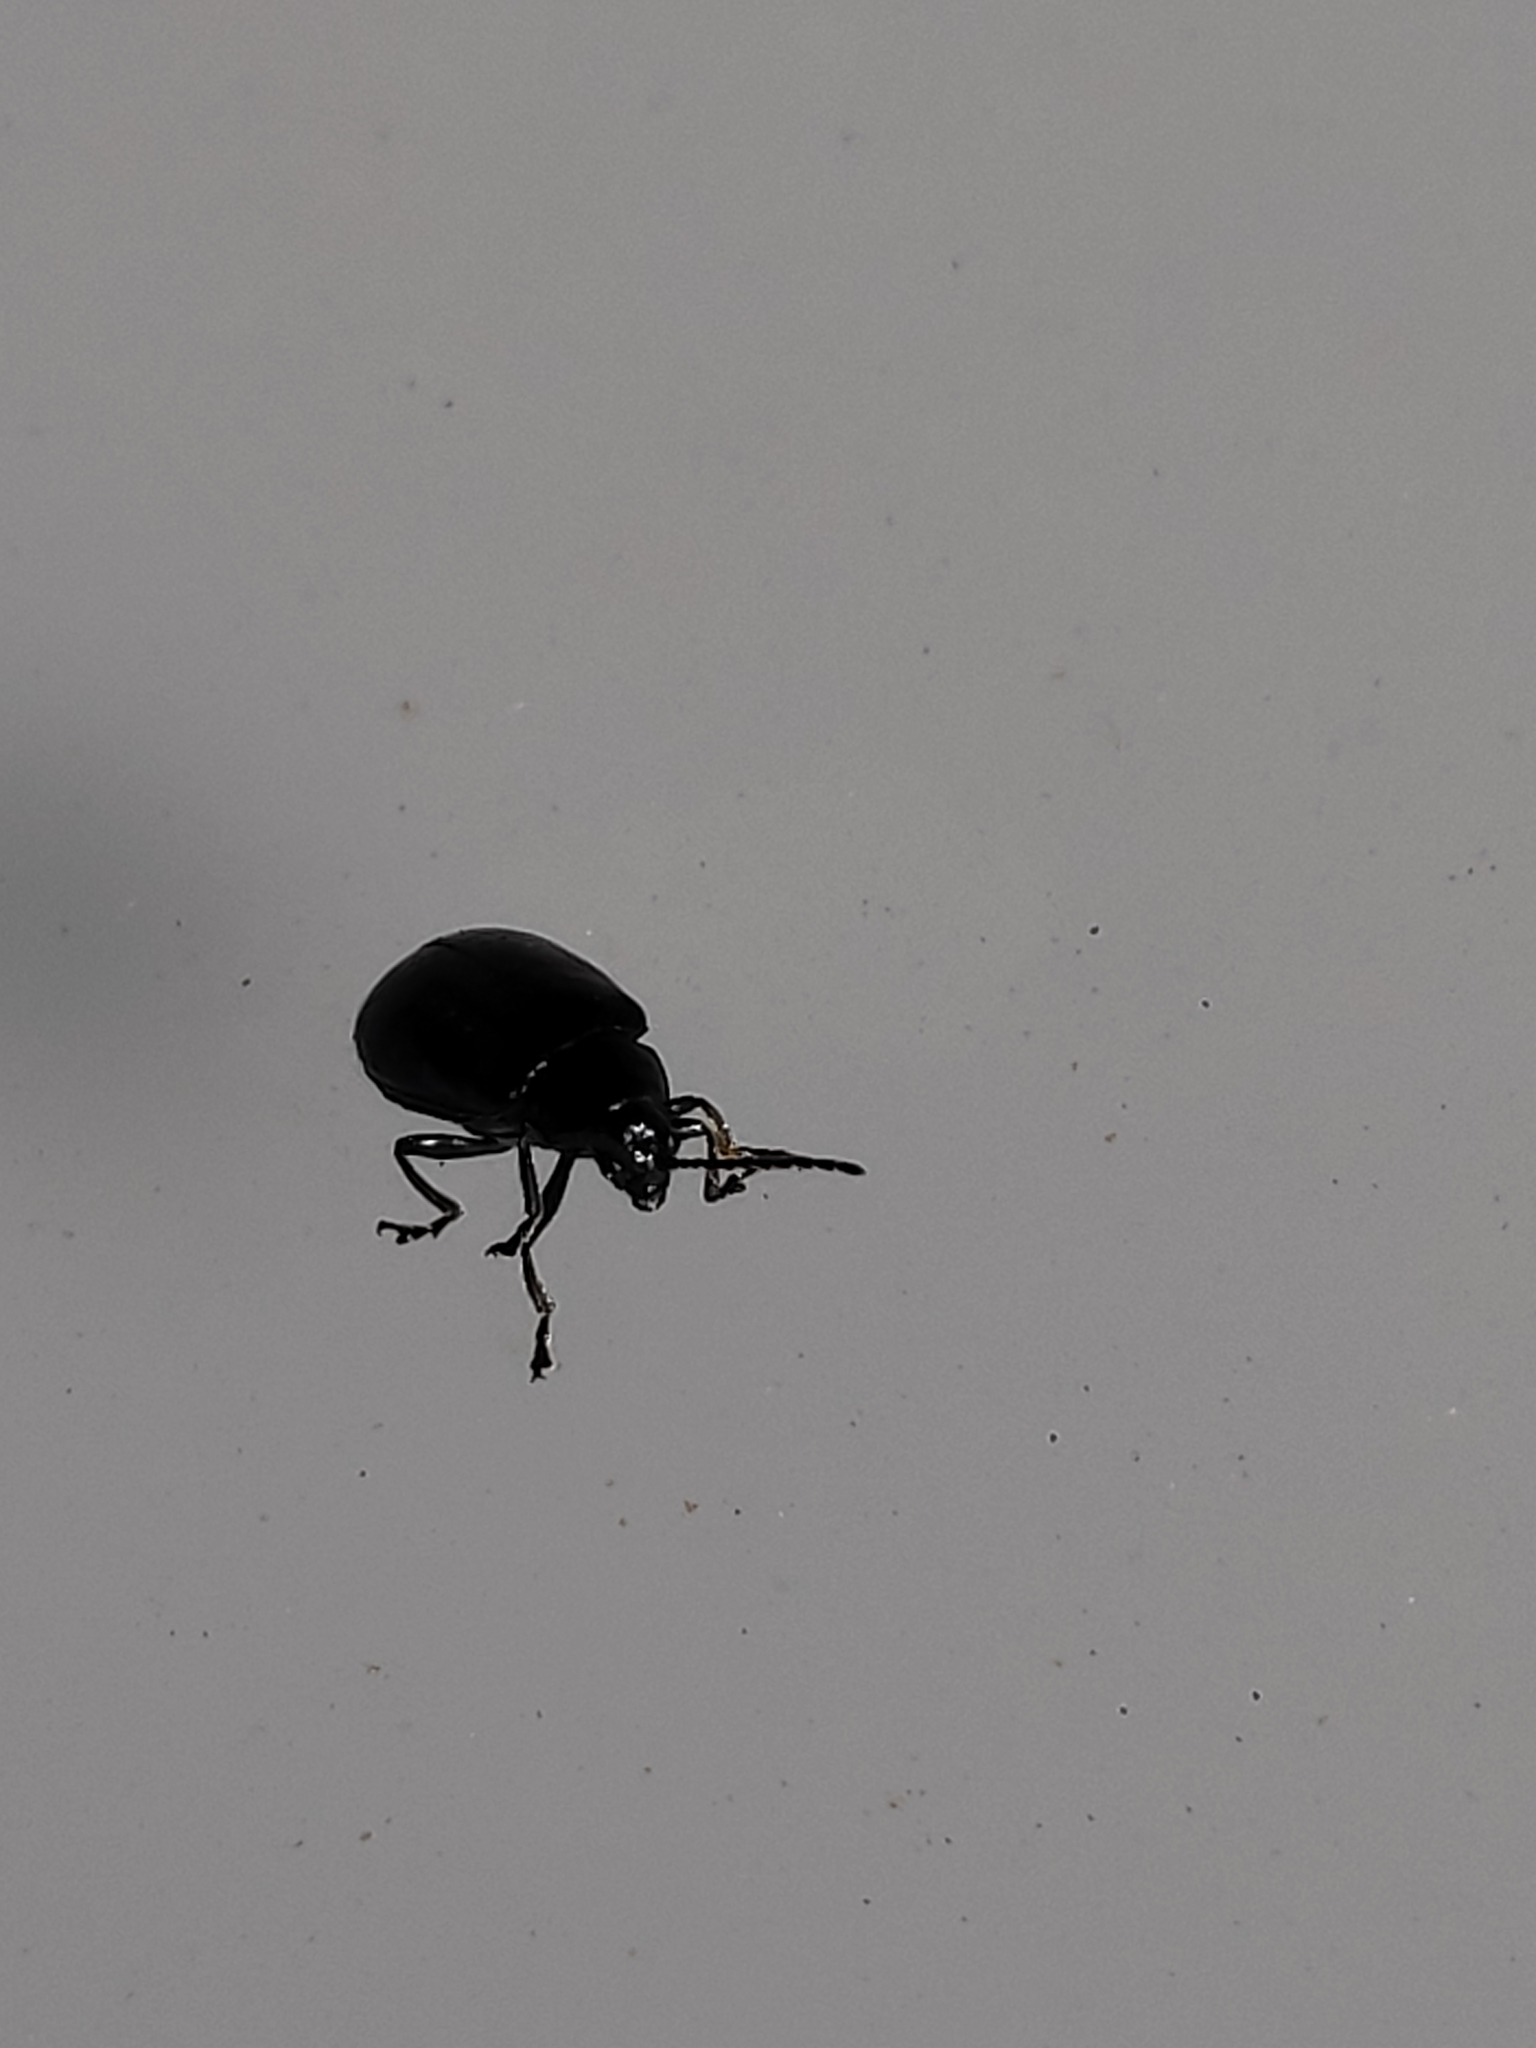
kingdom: Animalia
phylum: Arthropoda
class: Insecta
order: Coleoptera
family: Chrysomelidae
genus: Agelastica
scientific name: Agelastica alni
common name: Alder leaf beetle
